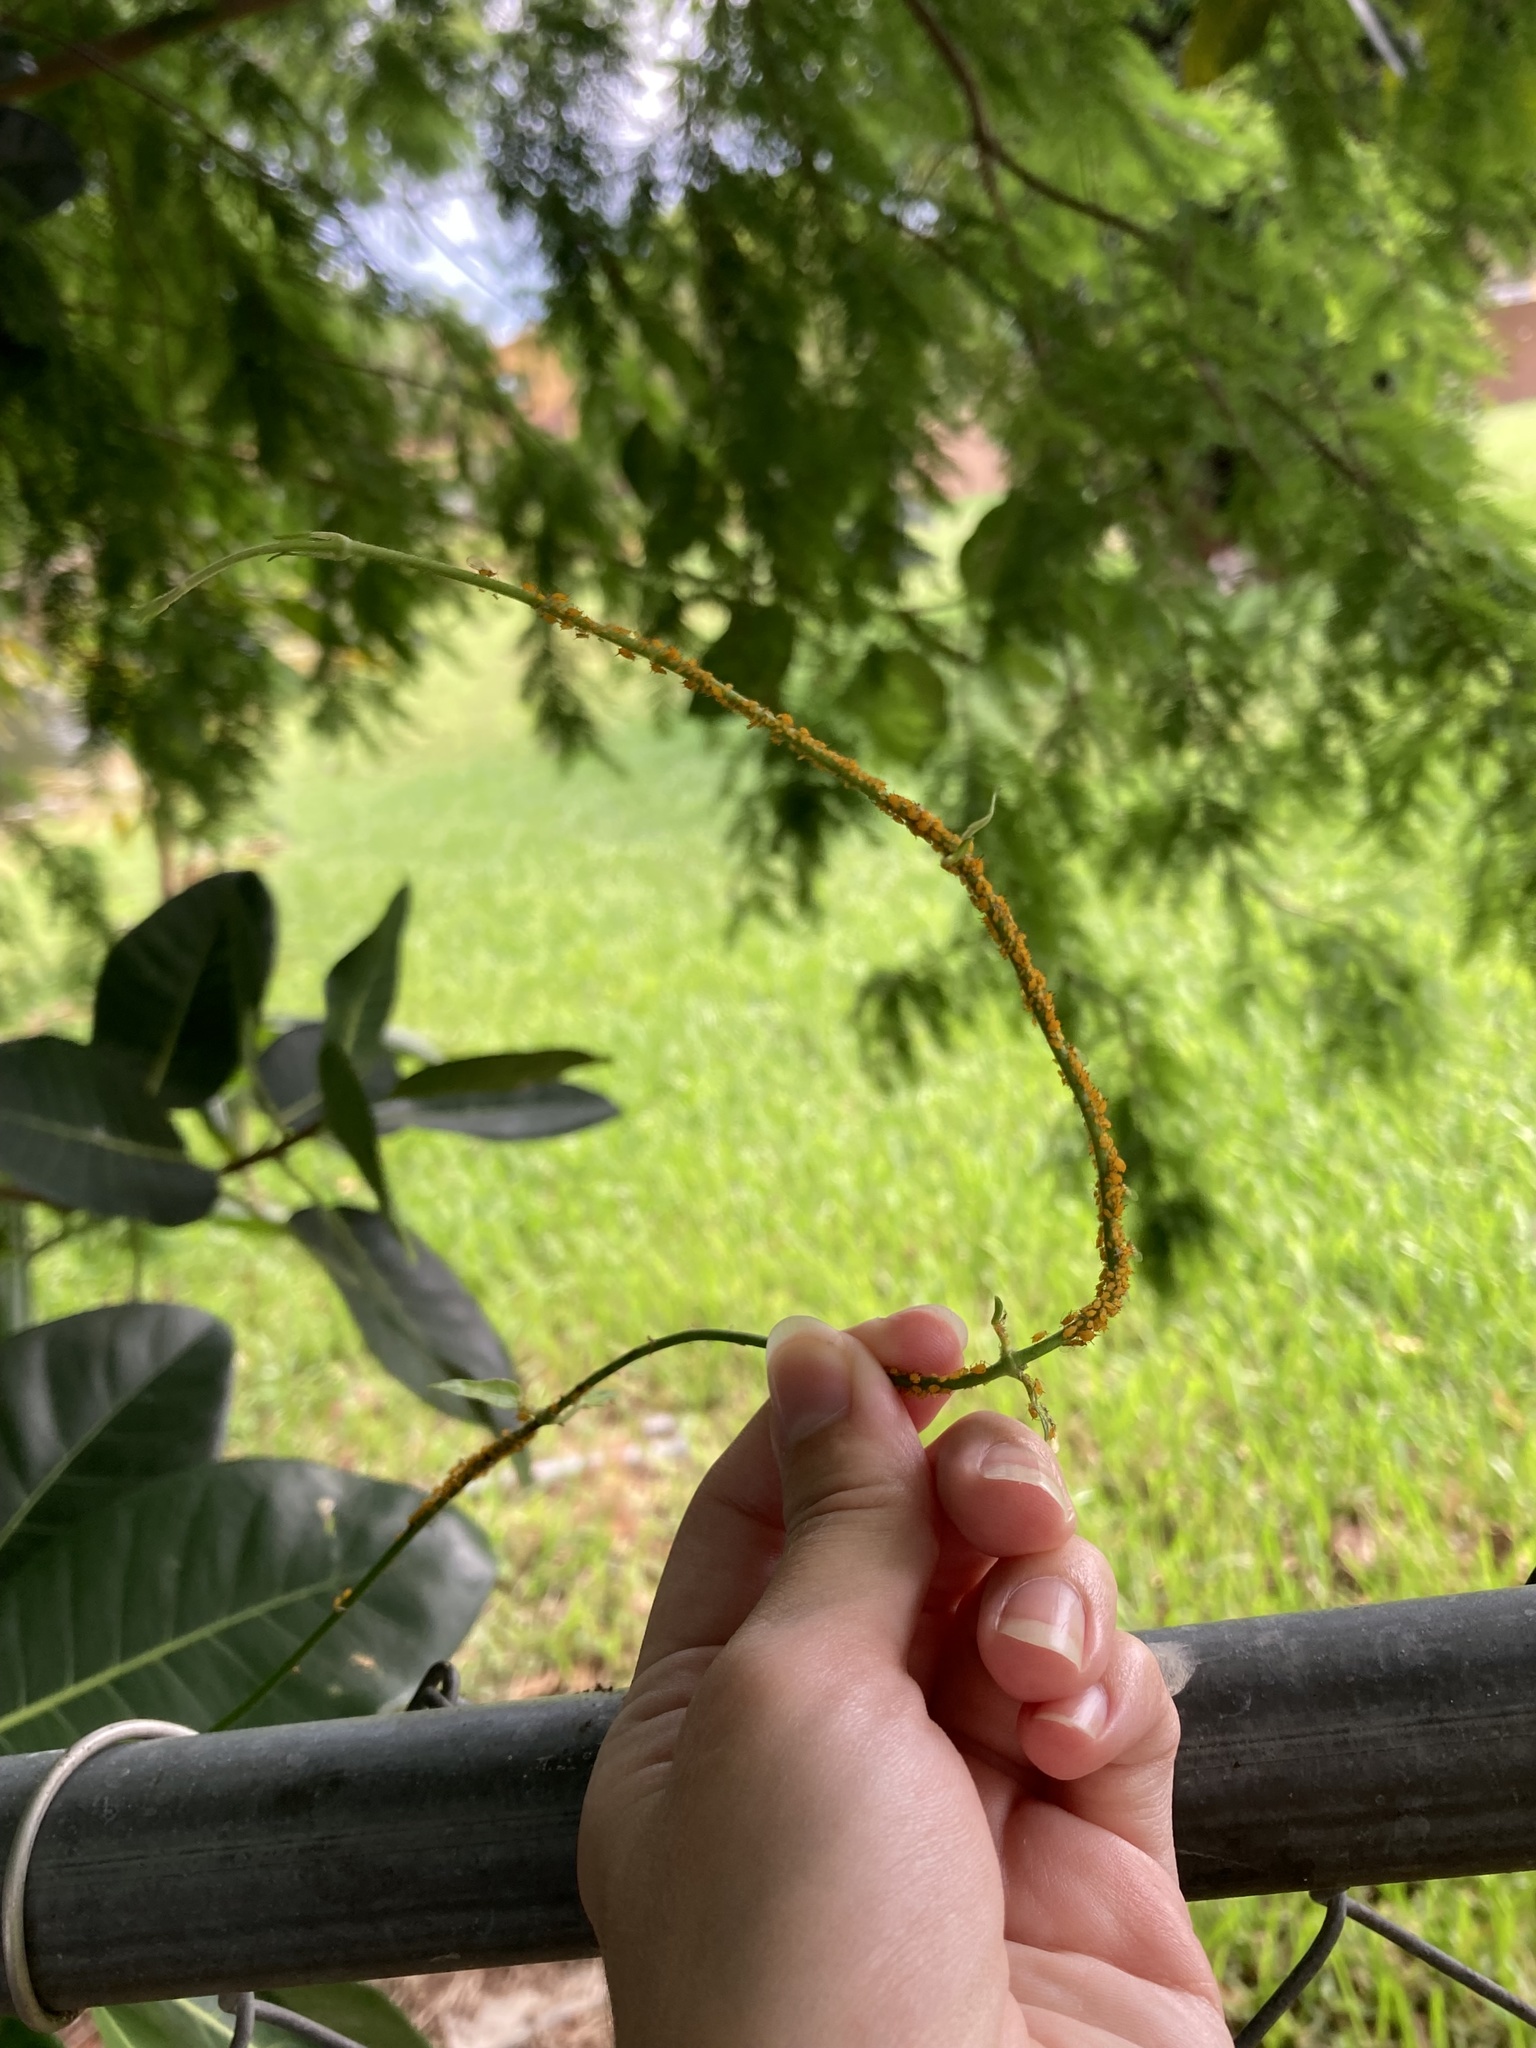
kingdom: Animalia
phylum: Arthropoda
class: Insecta
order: Hemiptera
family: Aphididae
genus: Aphis
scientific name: Aphis nerii
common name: Oleander aphid
